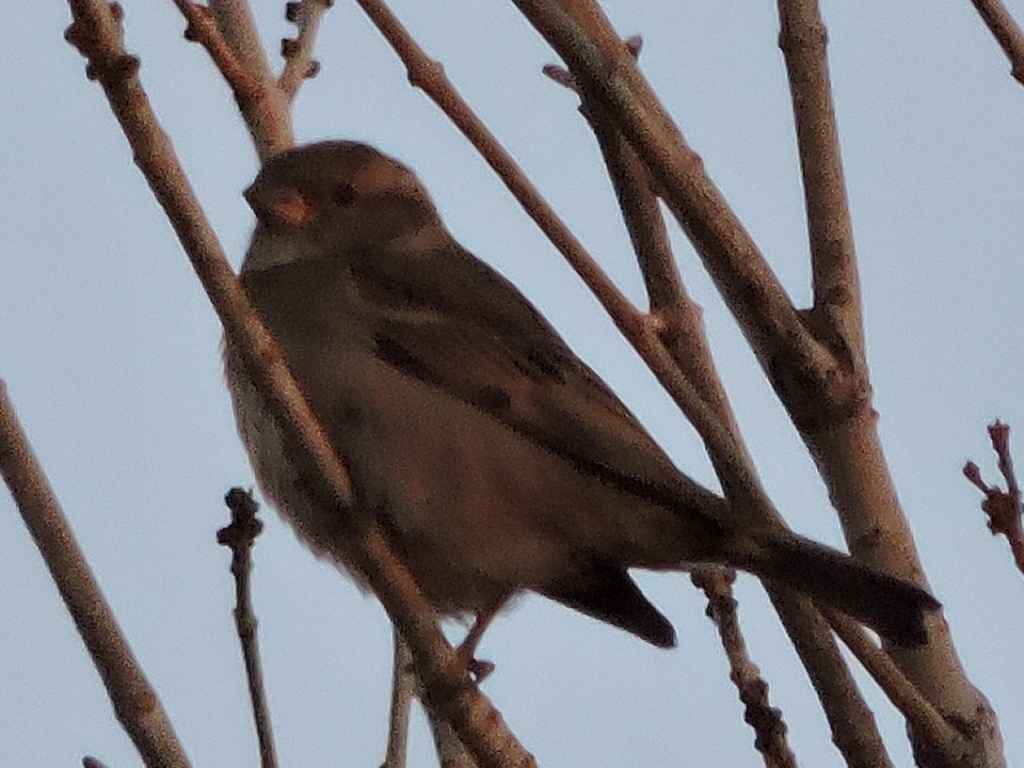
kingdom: Animalia
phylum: Chordata
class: Aves
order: Passeriformes
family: Passeridae
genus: Passer
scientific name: Passer domesticus
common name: House sparrow
